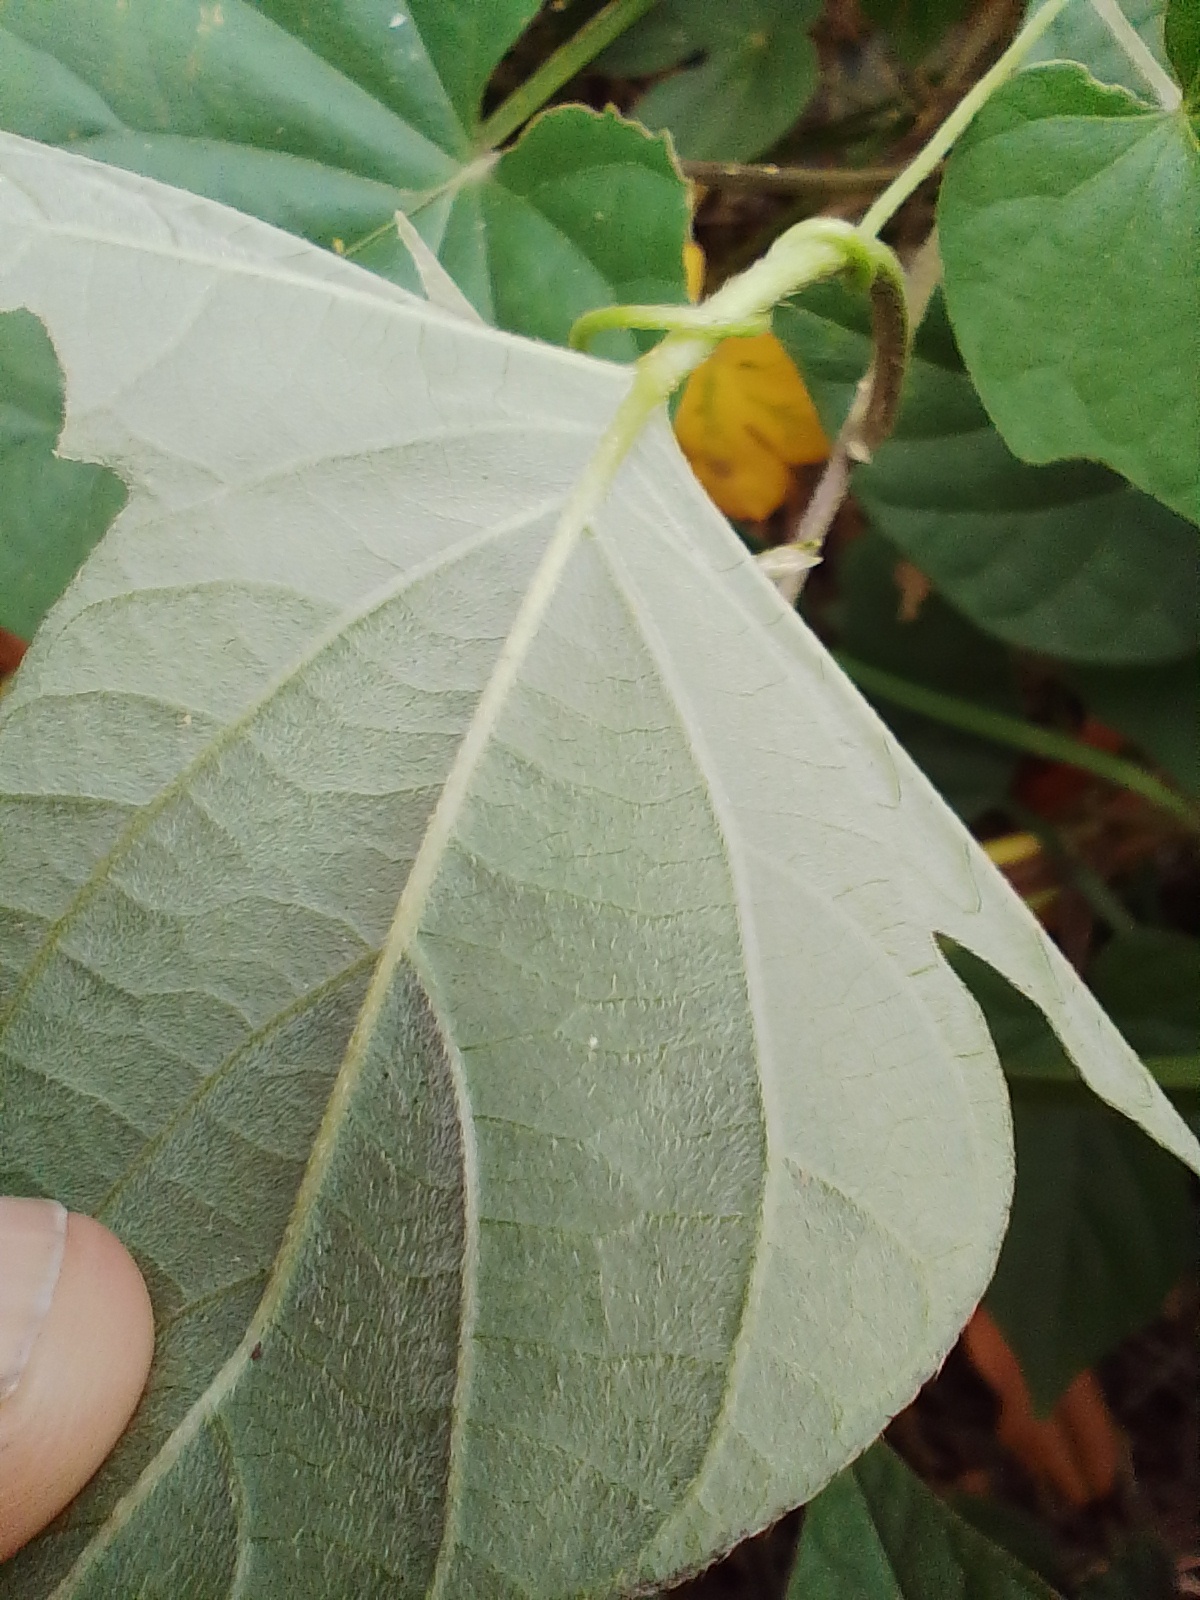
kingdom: Plantae
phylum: Tracheophyta
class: Magnoliopsida
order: Solanales
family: Convolvulaceae
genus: Ipomoea
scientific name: Ipomoea indica
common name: Blue dawnflower
